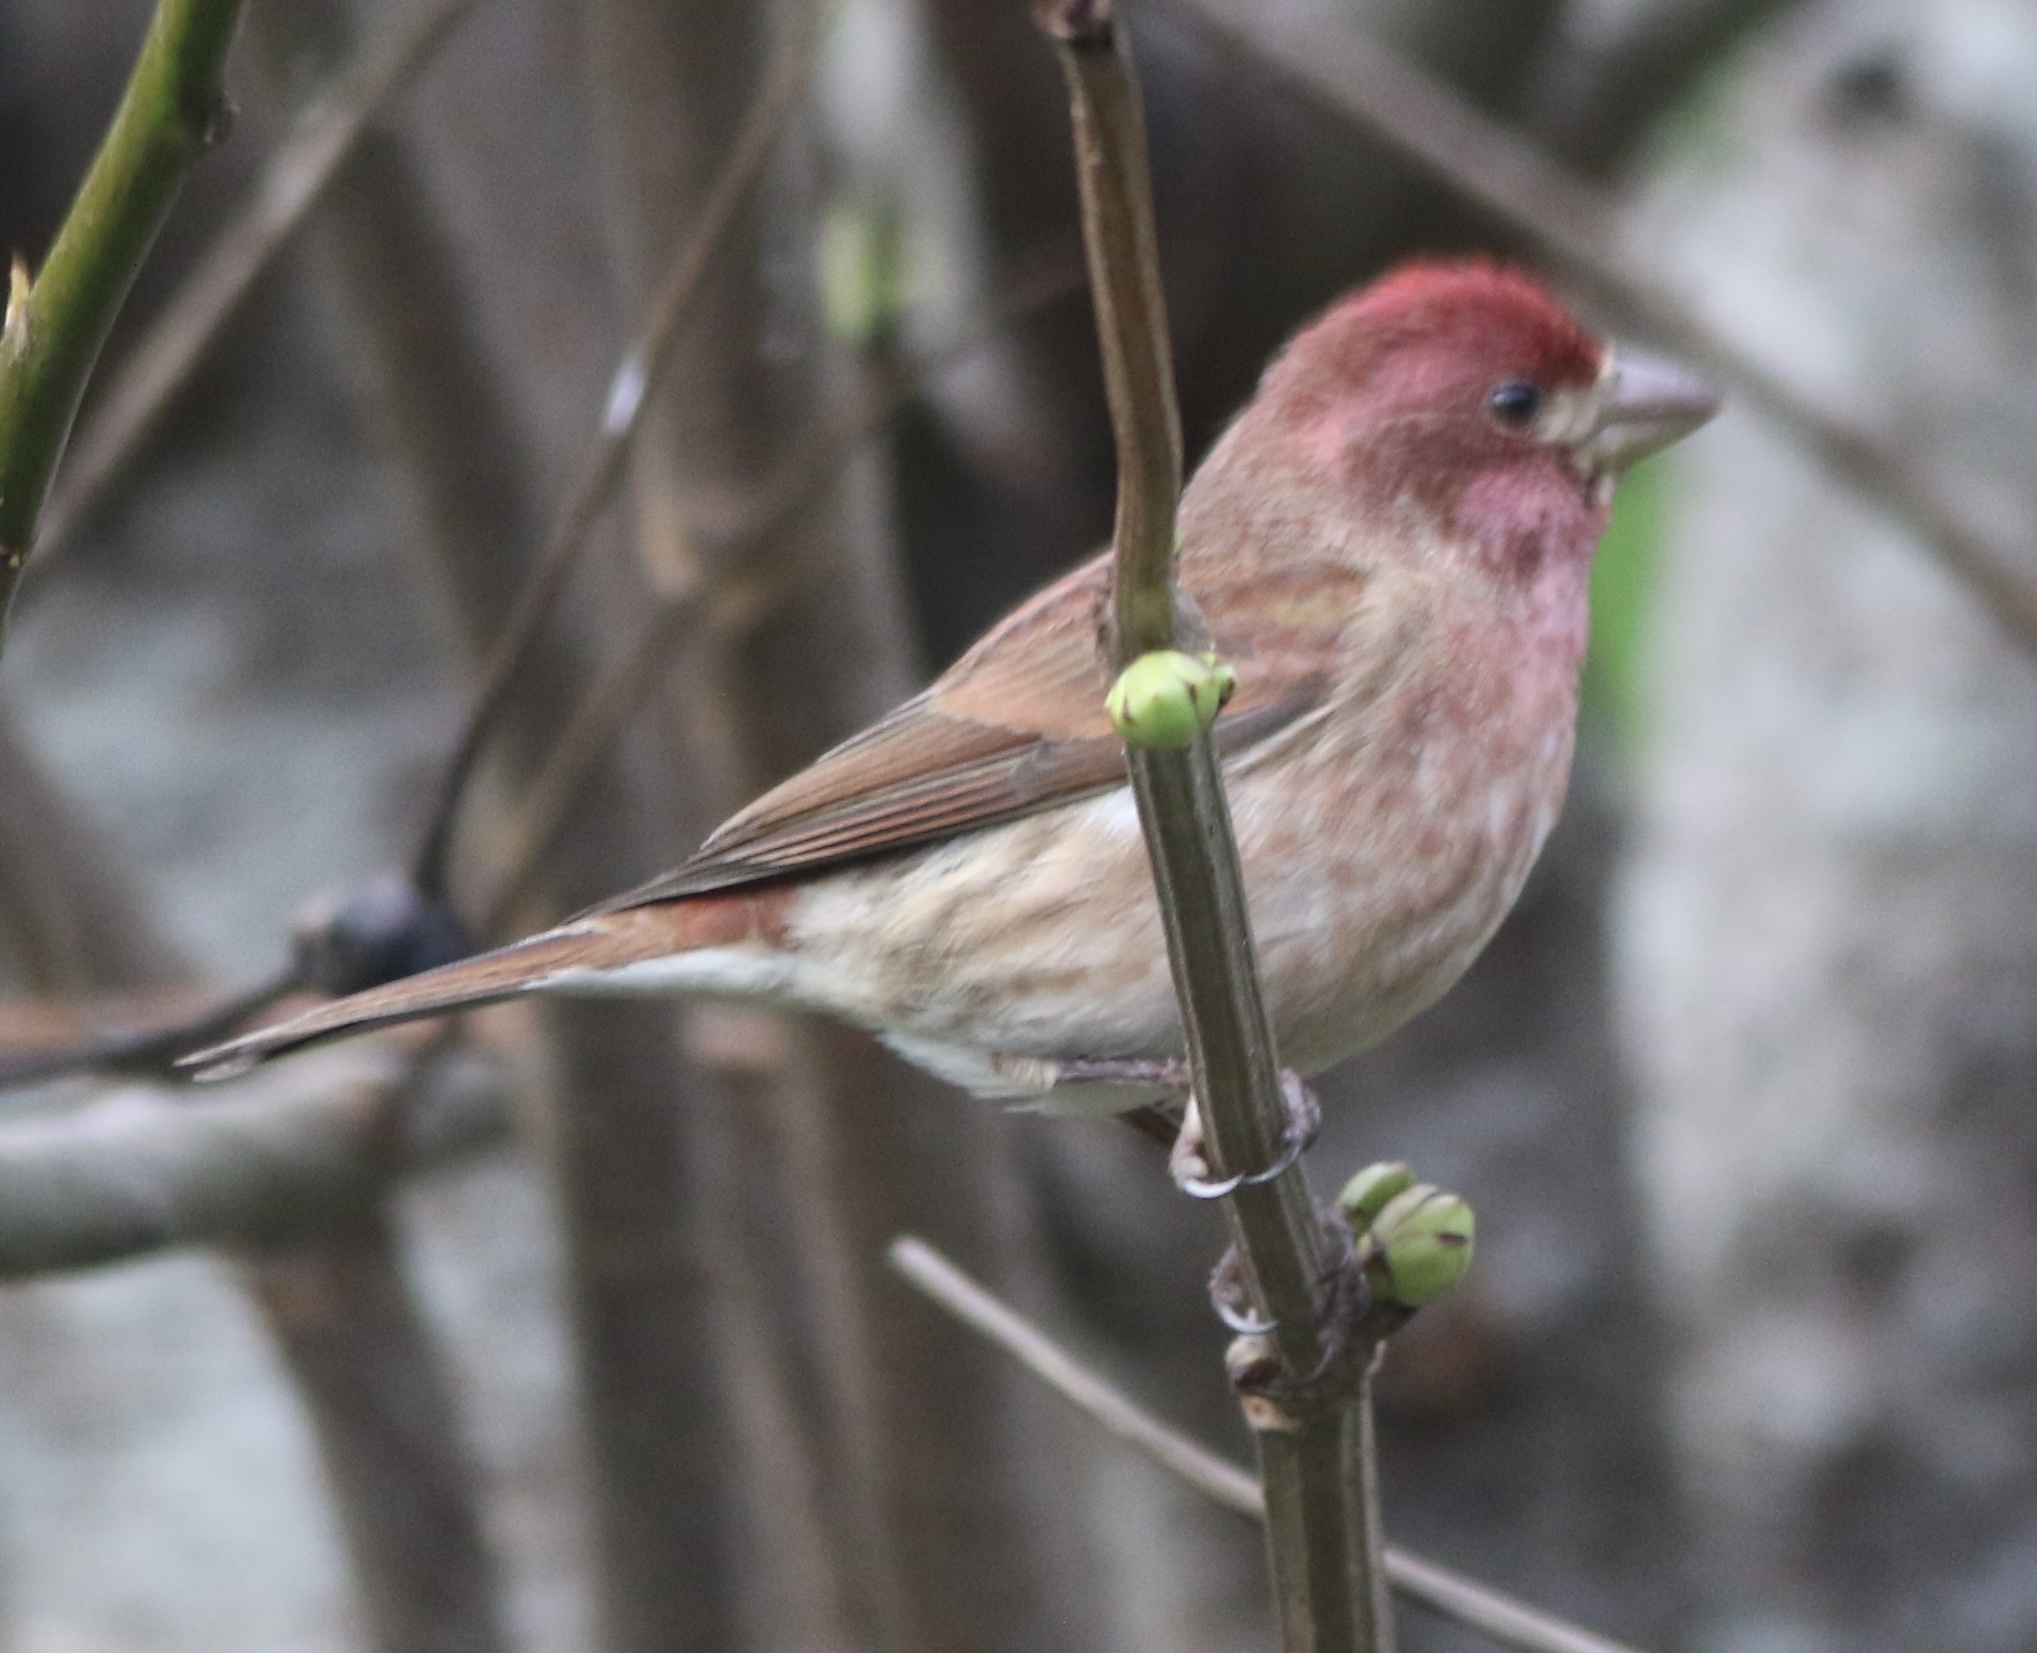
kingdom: Animalia
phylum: Chordata
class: Aves
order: Passeriformes
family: Fringillidae
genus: Haemorhous
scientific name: Haemorhous purpureus
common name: Purple finch
